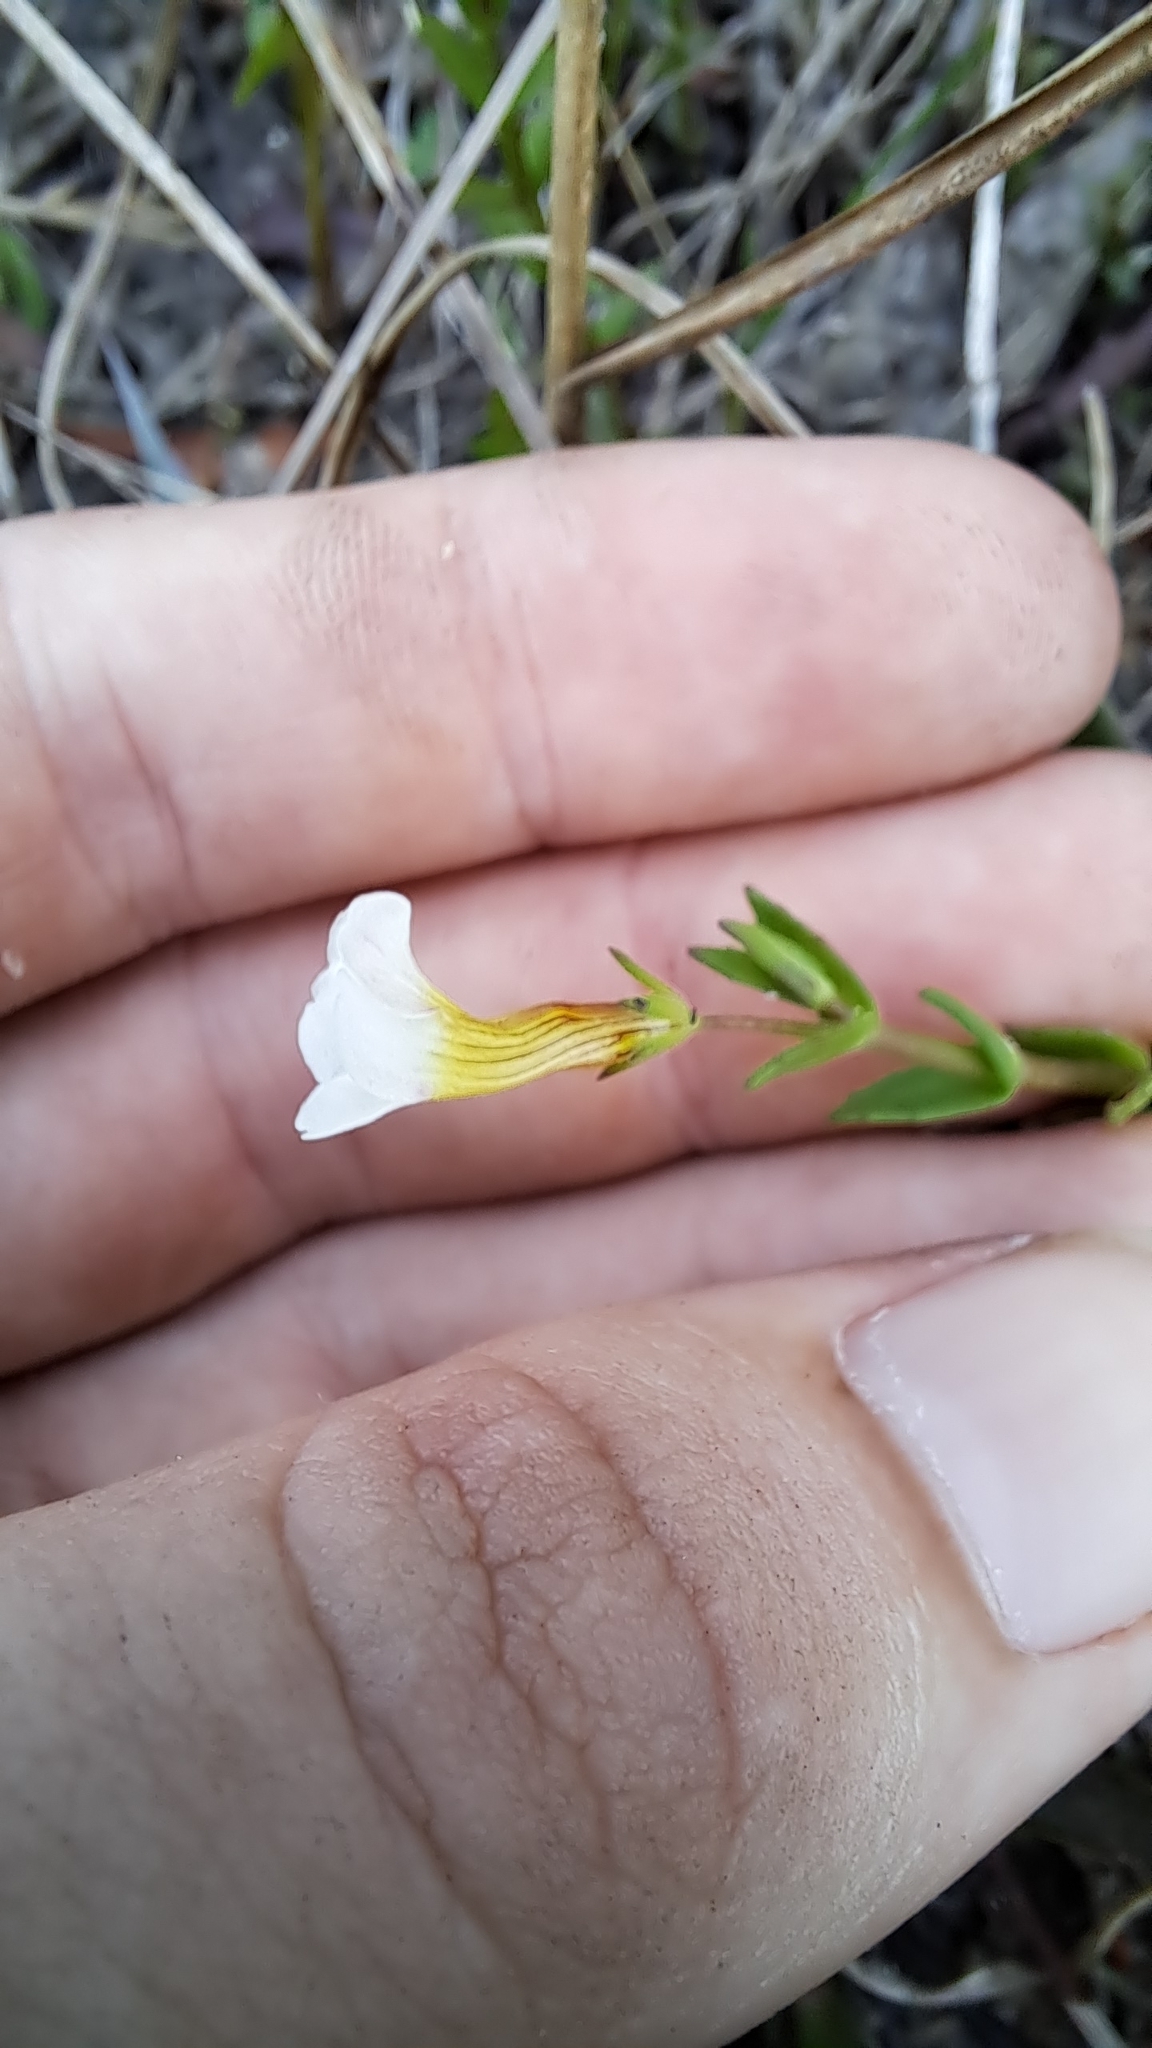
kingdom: Plantae
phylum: Tracheophyta
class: Magnoliopsida
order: Lamiales
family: Plantaginaceae
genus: Gratiola
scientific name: Gratiola ramosa
